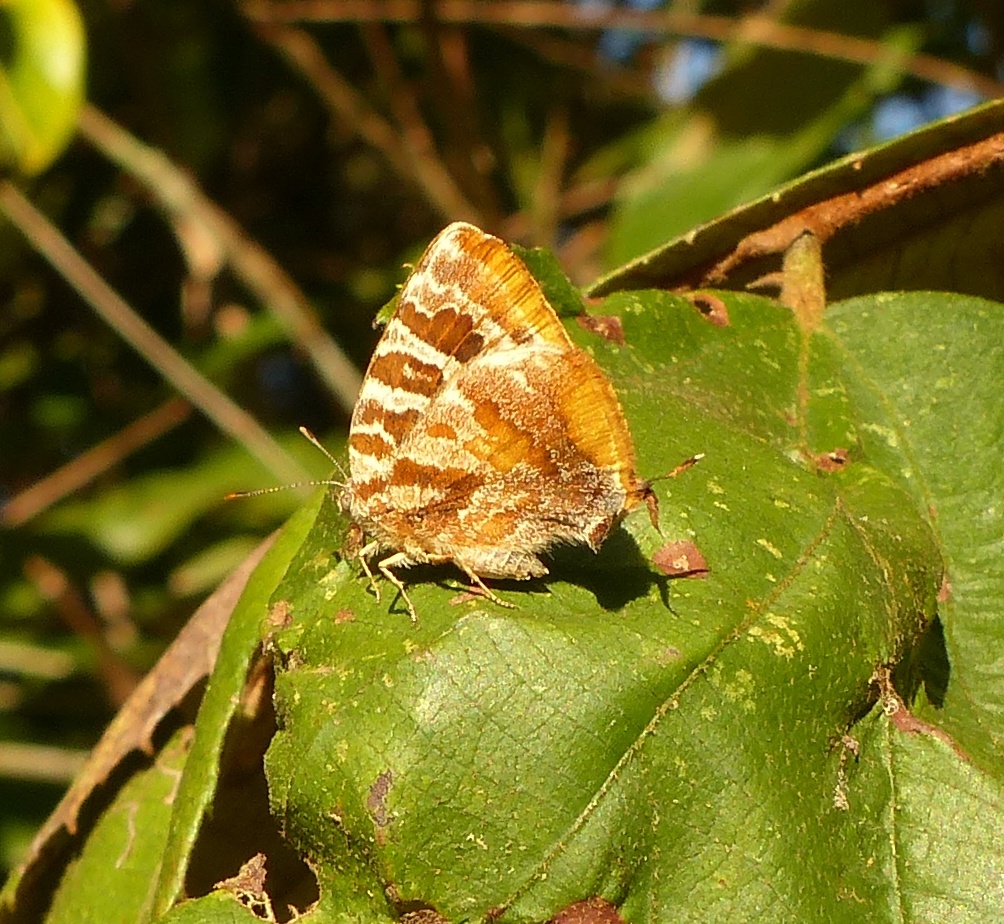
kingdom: Animalia
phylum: Arthropoda
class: Insecta
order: Lepidoptera
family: Lycaenidae
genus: Arawacus
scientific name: Arawacus ellida
